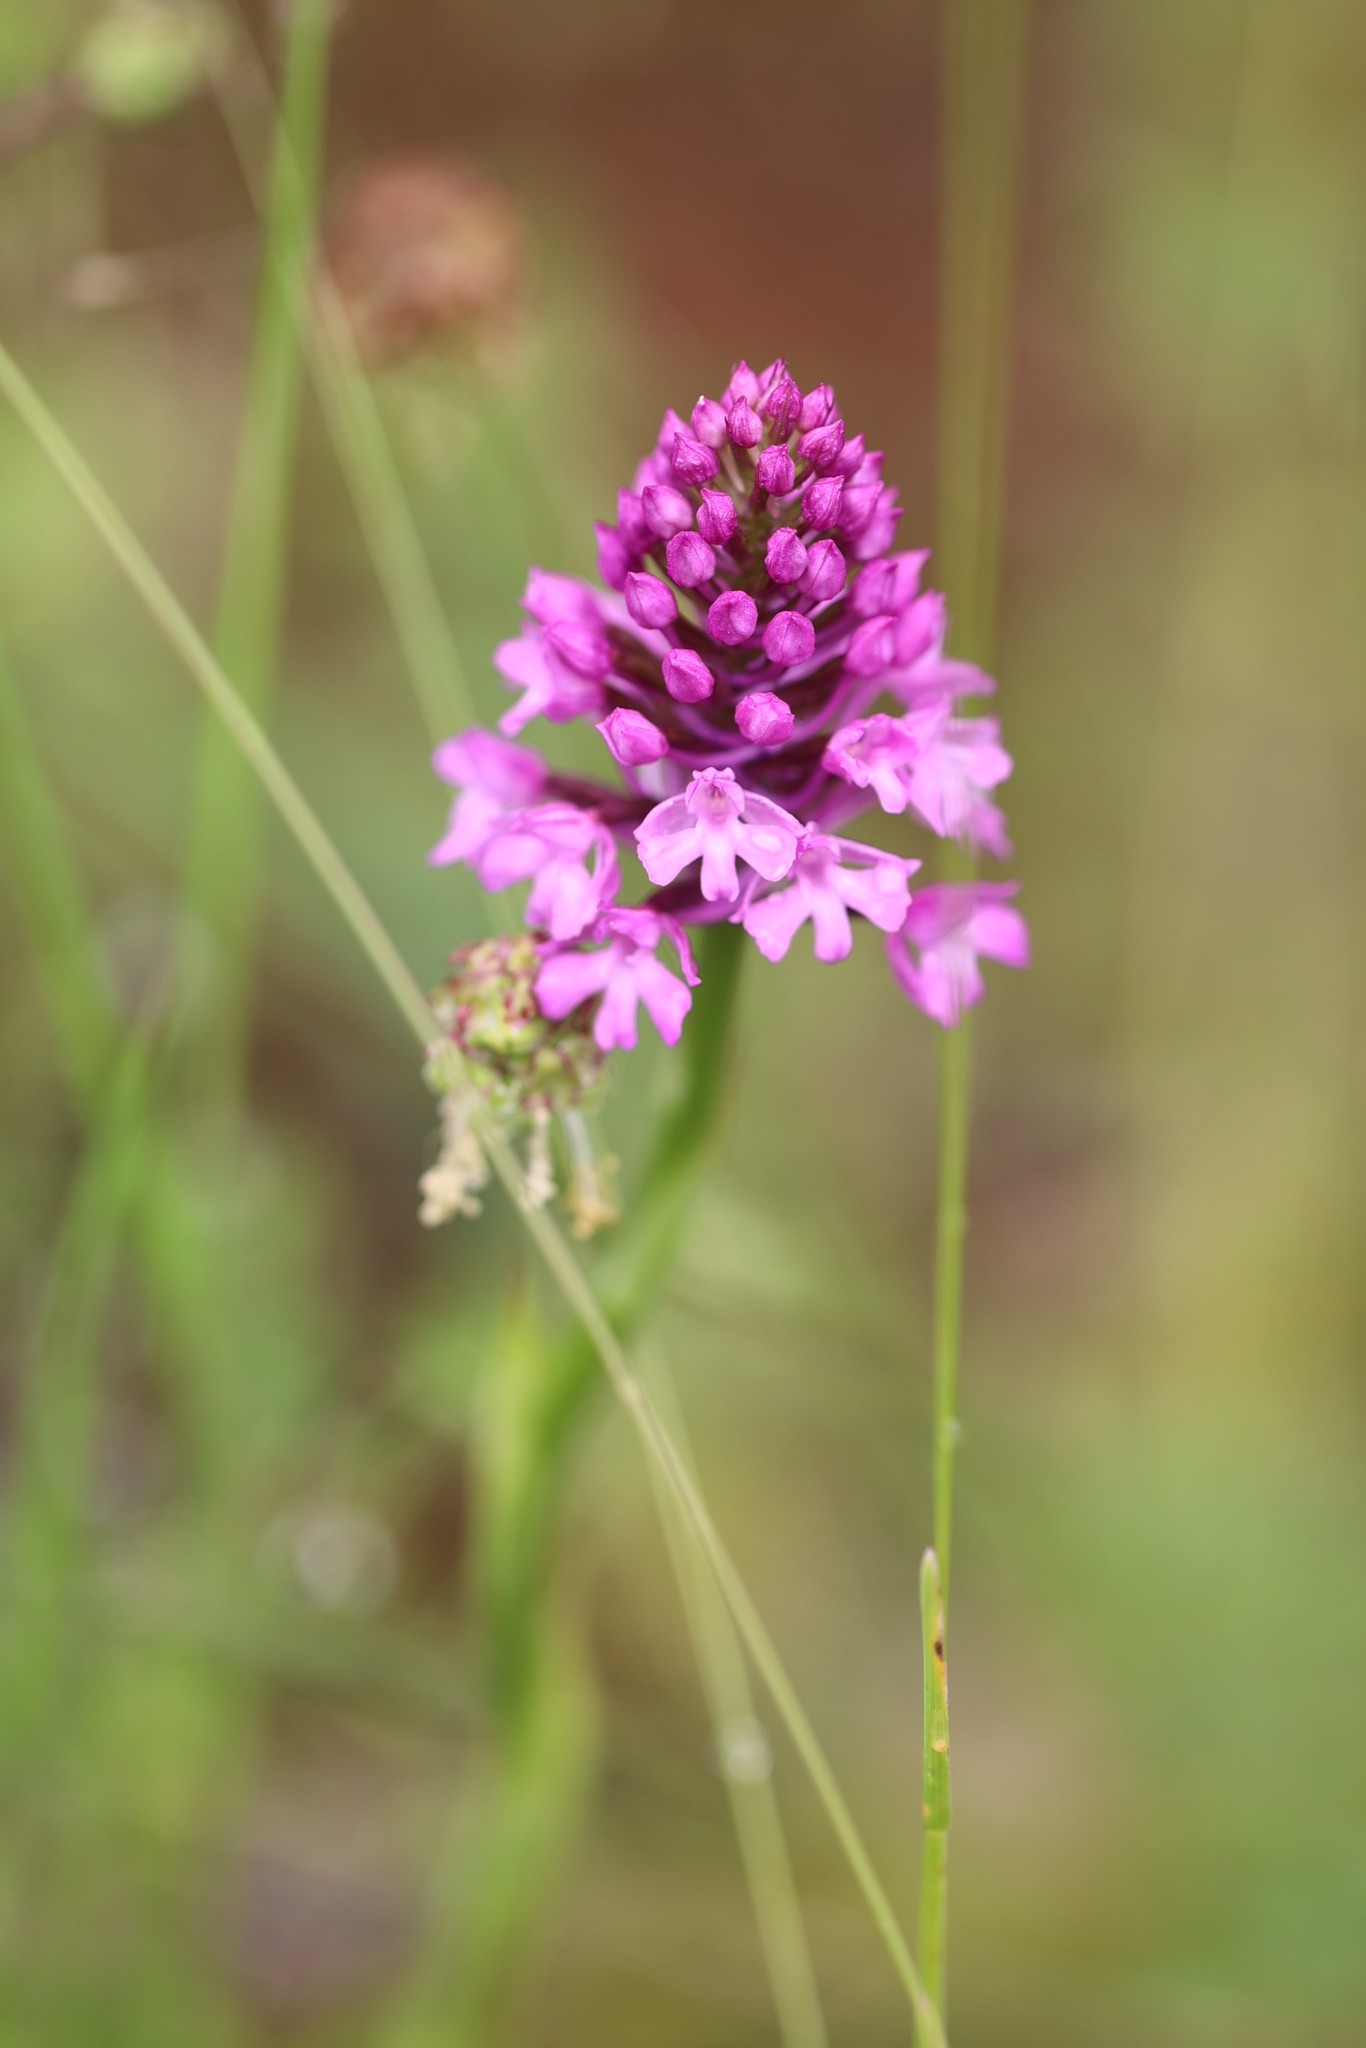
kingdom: Plantae
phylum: Tracheophyta
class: Liliopsida
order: Asparagales
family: Orchidaceae
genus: Anacamptis
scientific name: Anacamptis pyramidalis
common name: Pyramidal orchid
